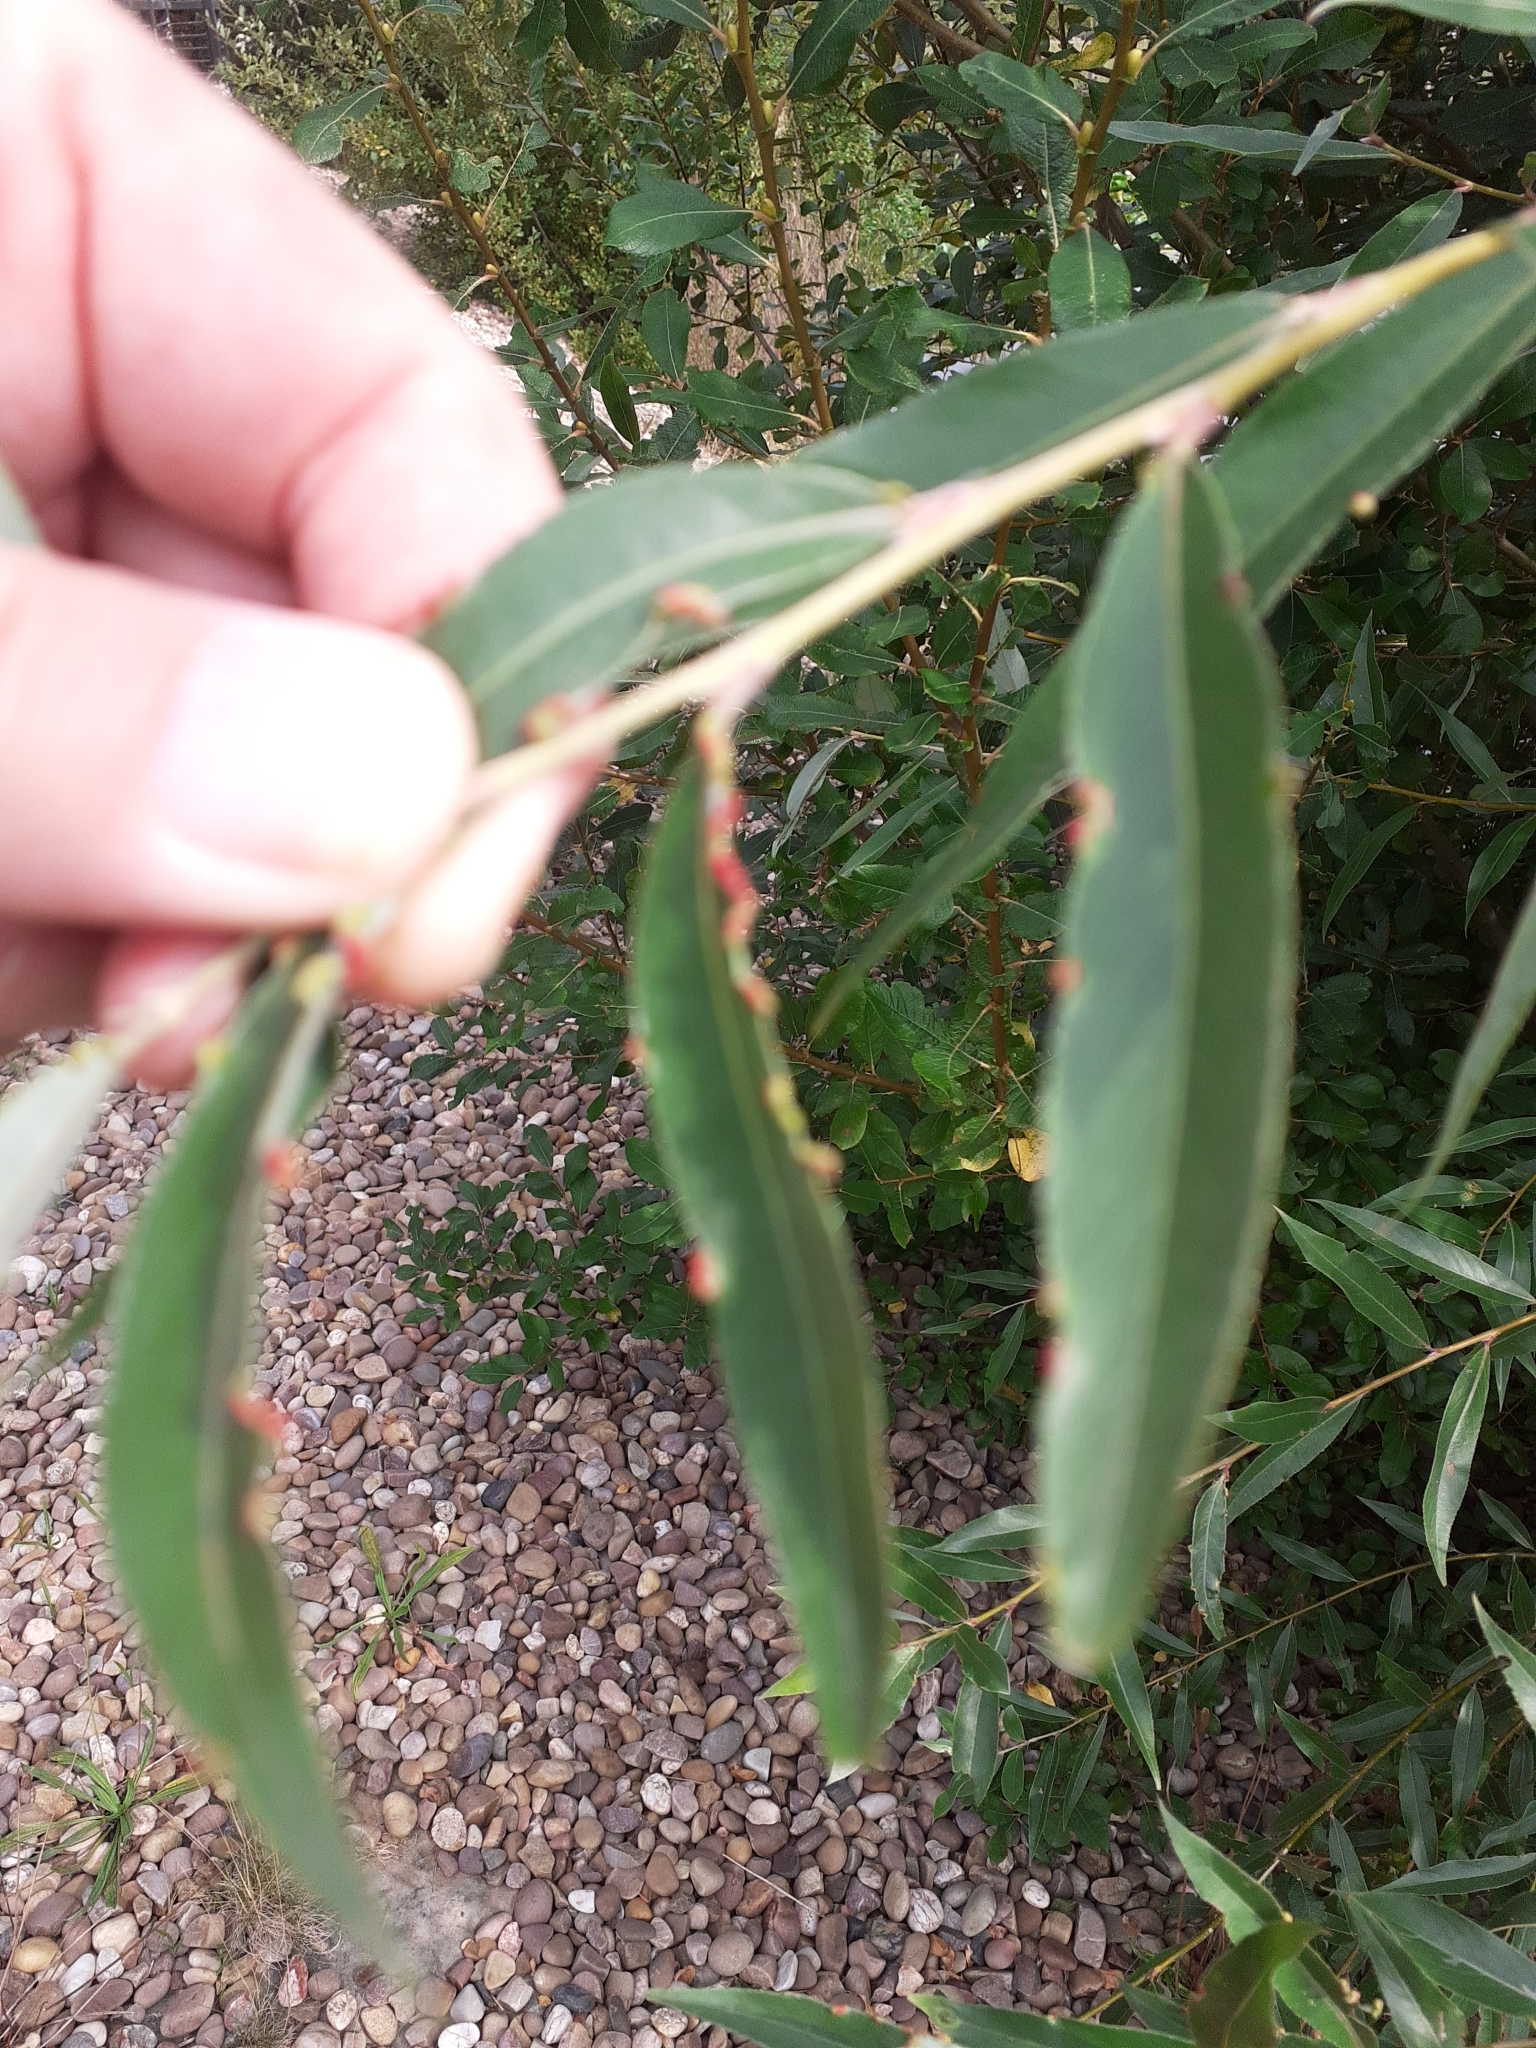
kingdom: Animalia
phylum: Arthropoda
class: Arachnida
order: Trombidiformes
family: Eriophyidae
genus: Aceria
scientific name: Aceria craspedophyes
